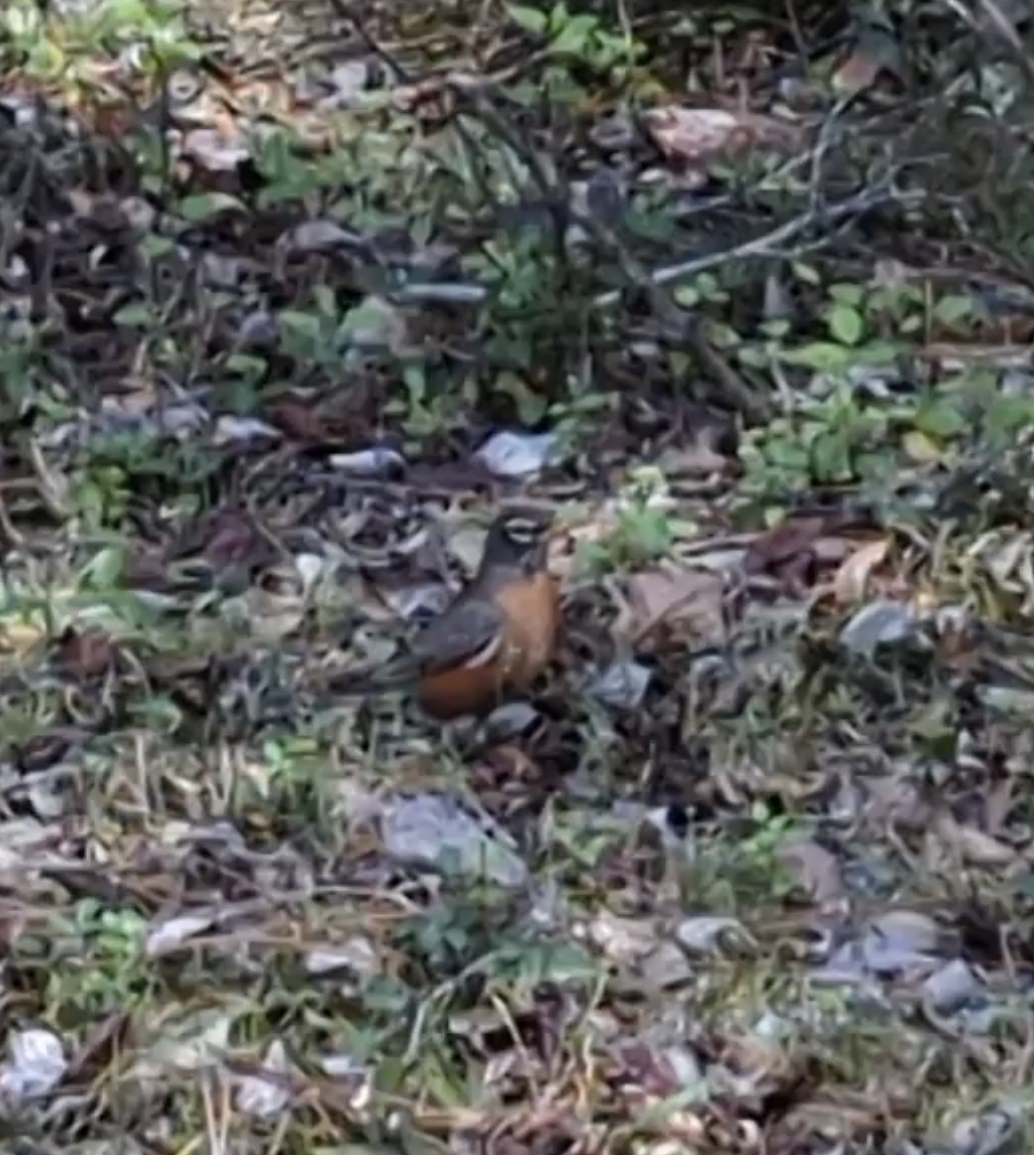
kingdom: Animalia
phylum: Chordata
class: Aves
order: Passeriformes
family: Turdidae
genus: Turdus
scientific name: Turdus migratorius
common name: American robin
